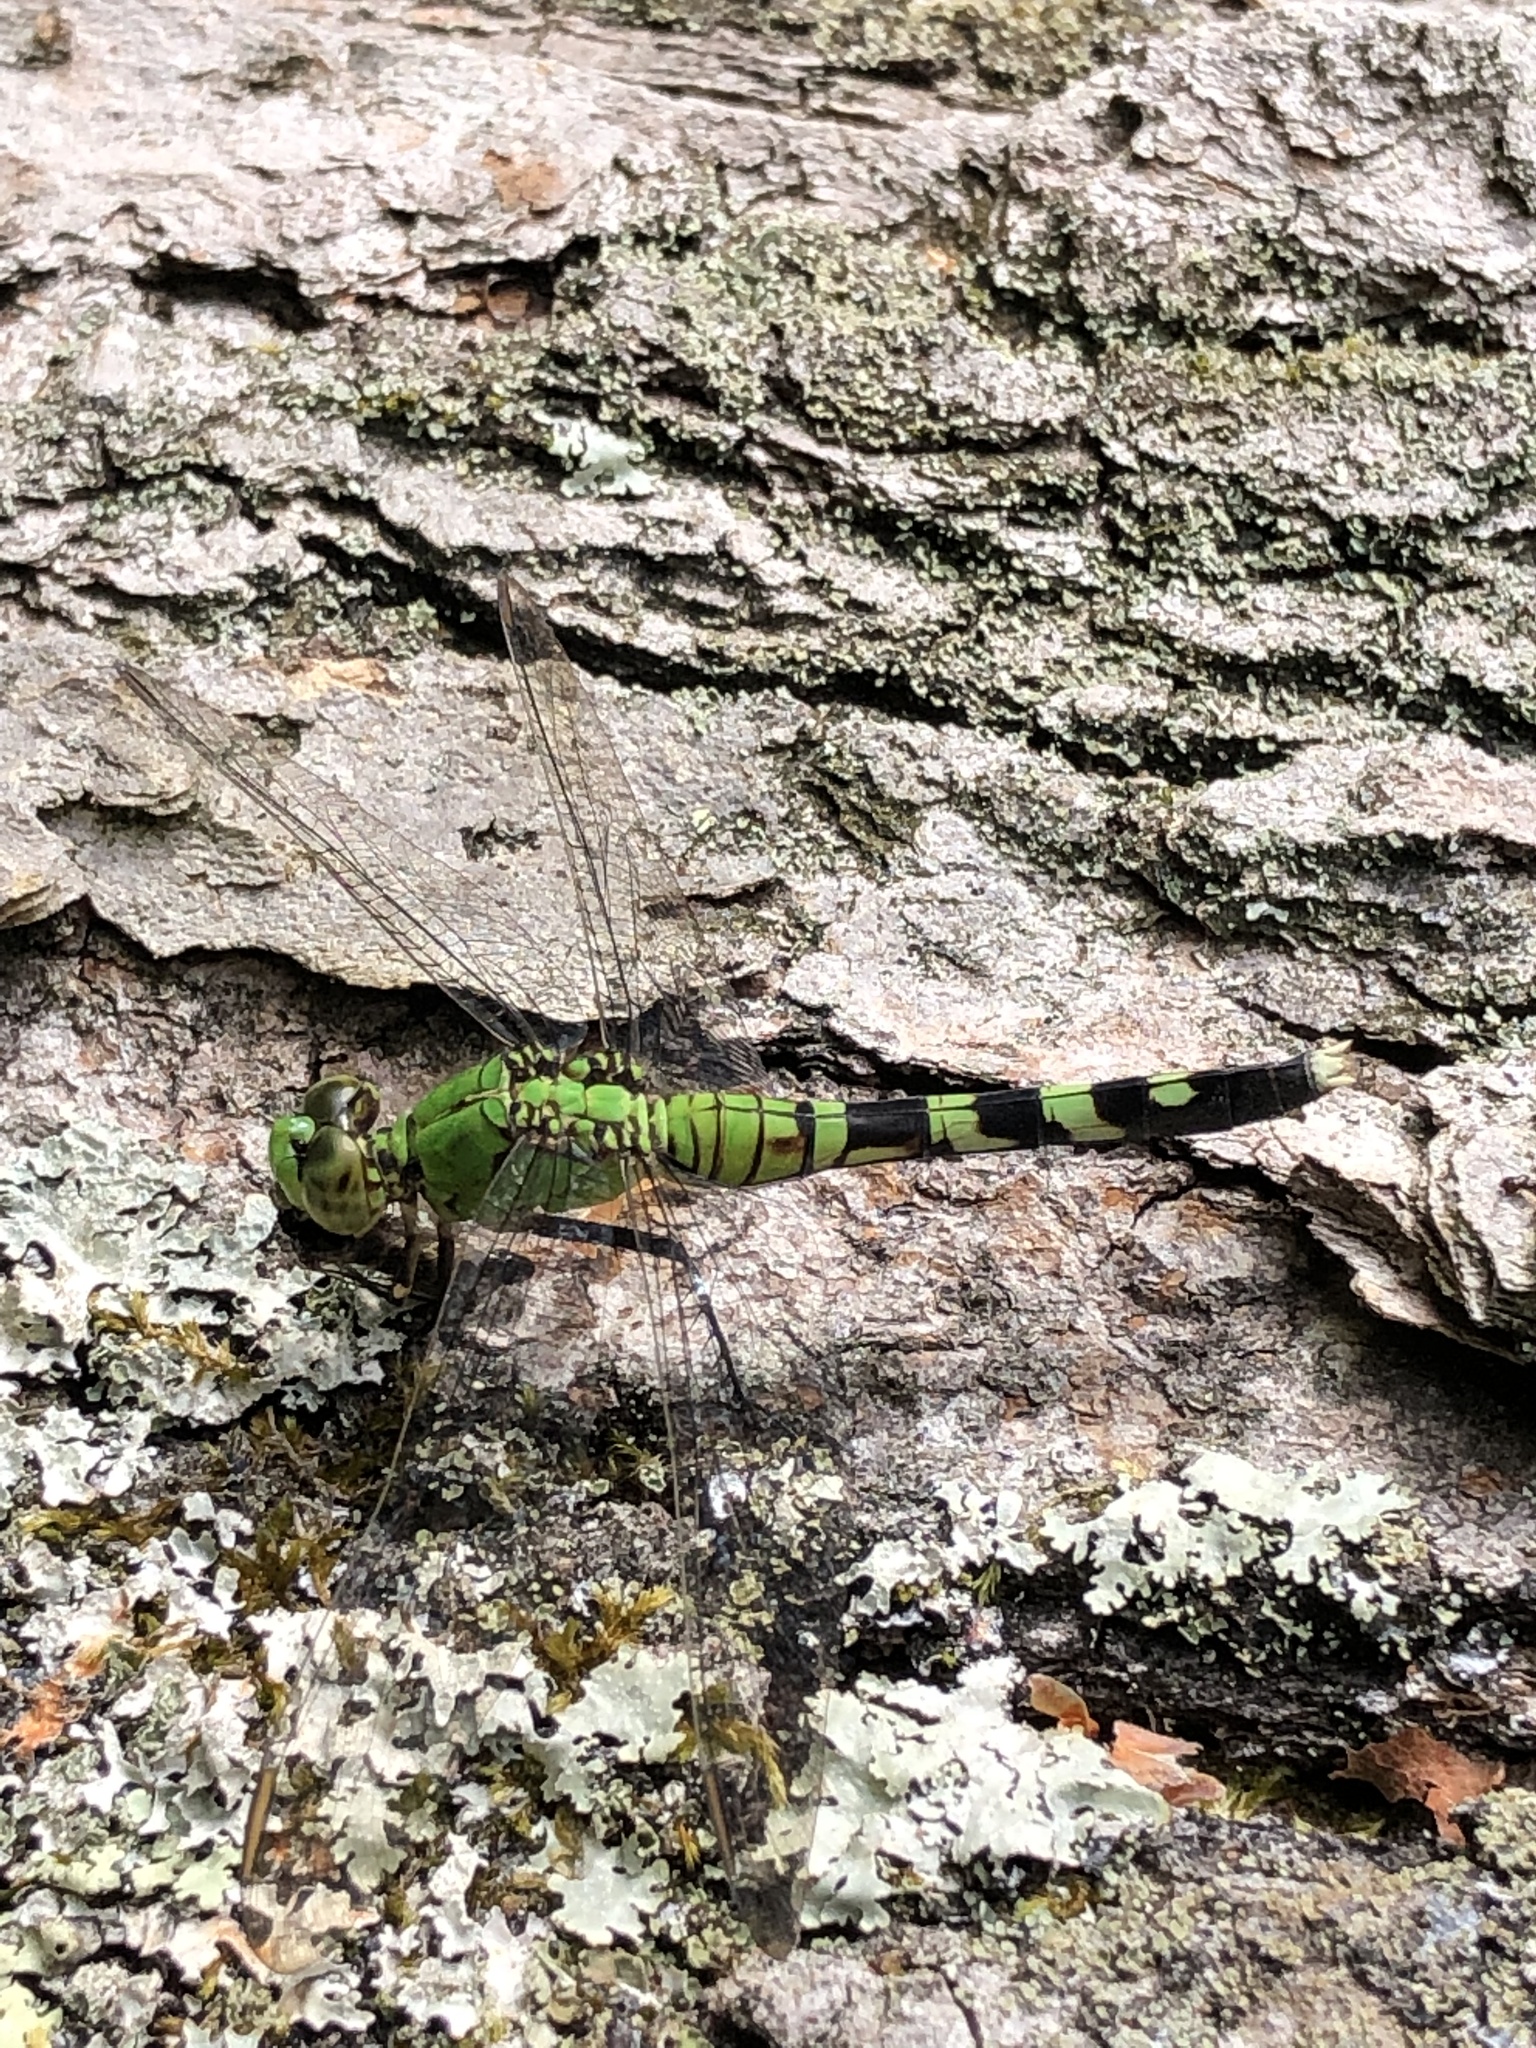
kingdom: Animalia
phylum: Arthropoda
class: Insecta
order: Odonata
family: Libellulidae
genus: Erythemis
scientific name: Erythemis simplicicollis
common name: Eastern pondhawk
